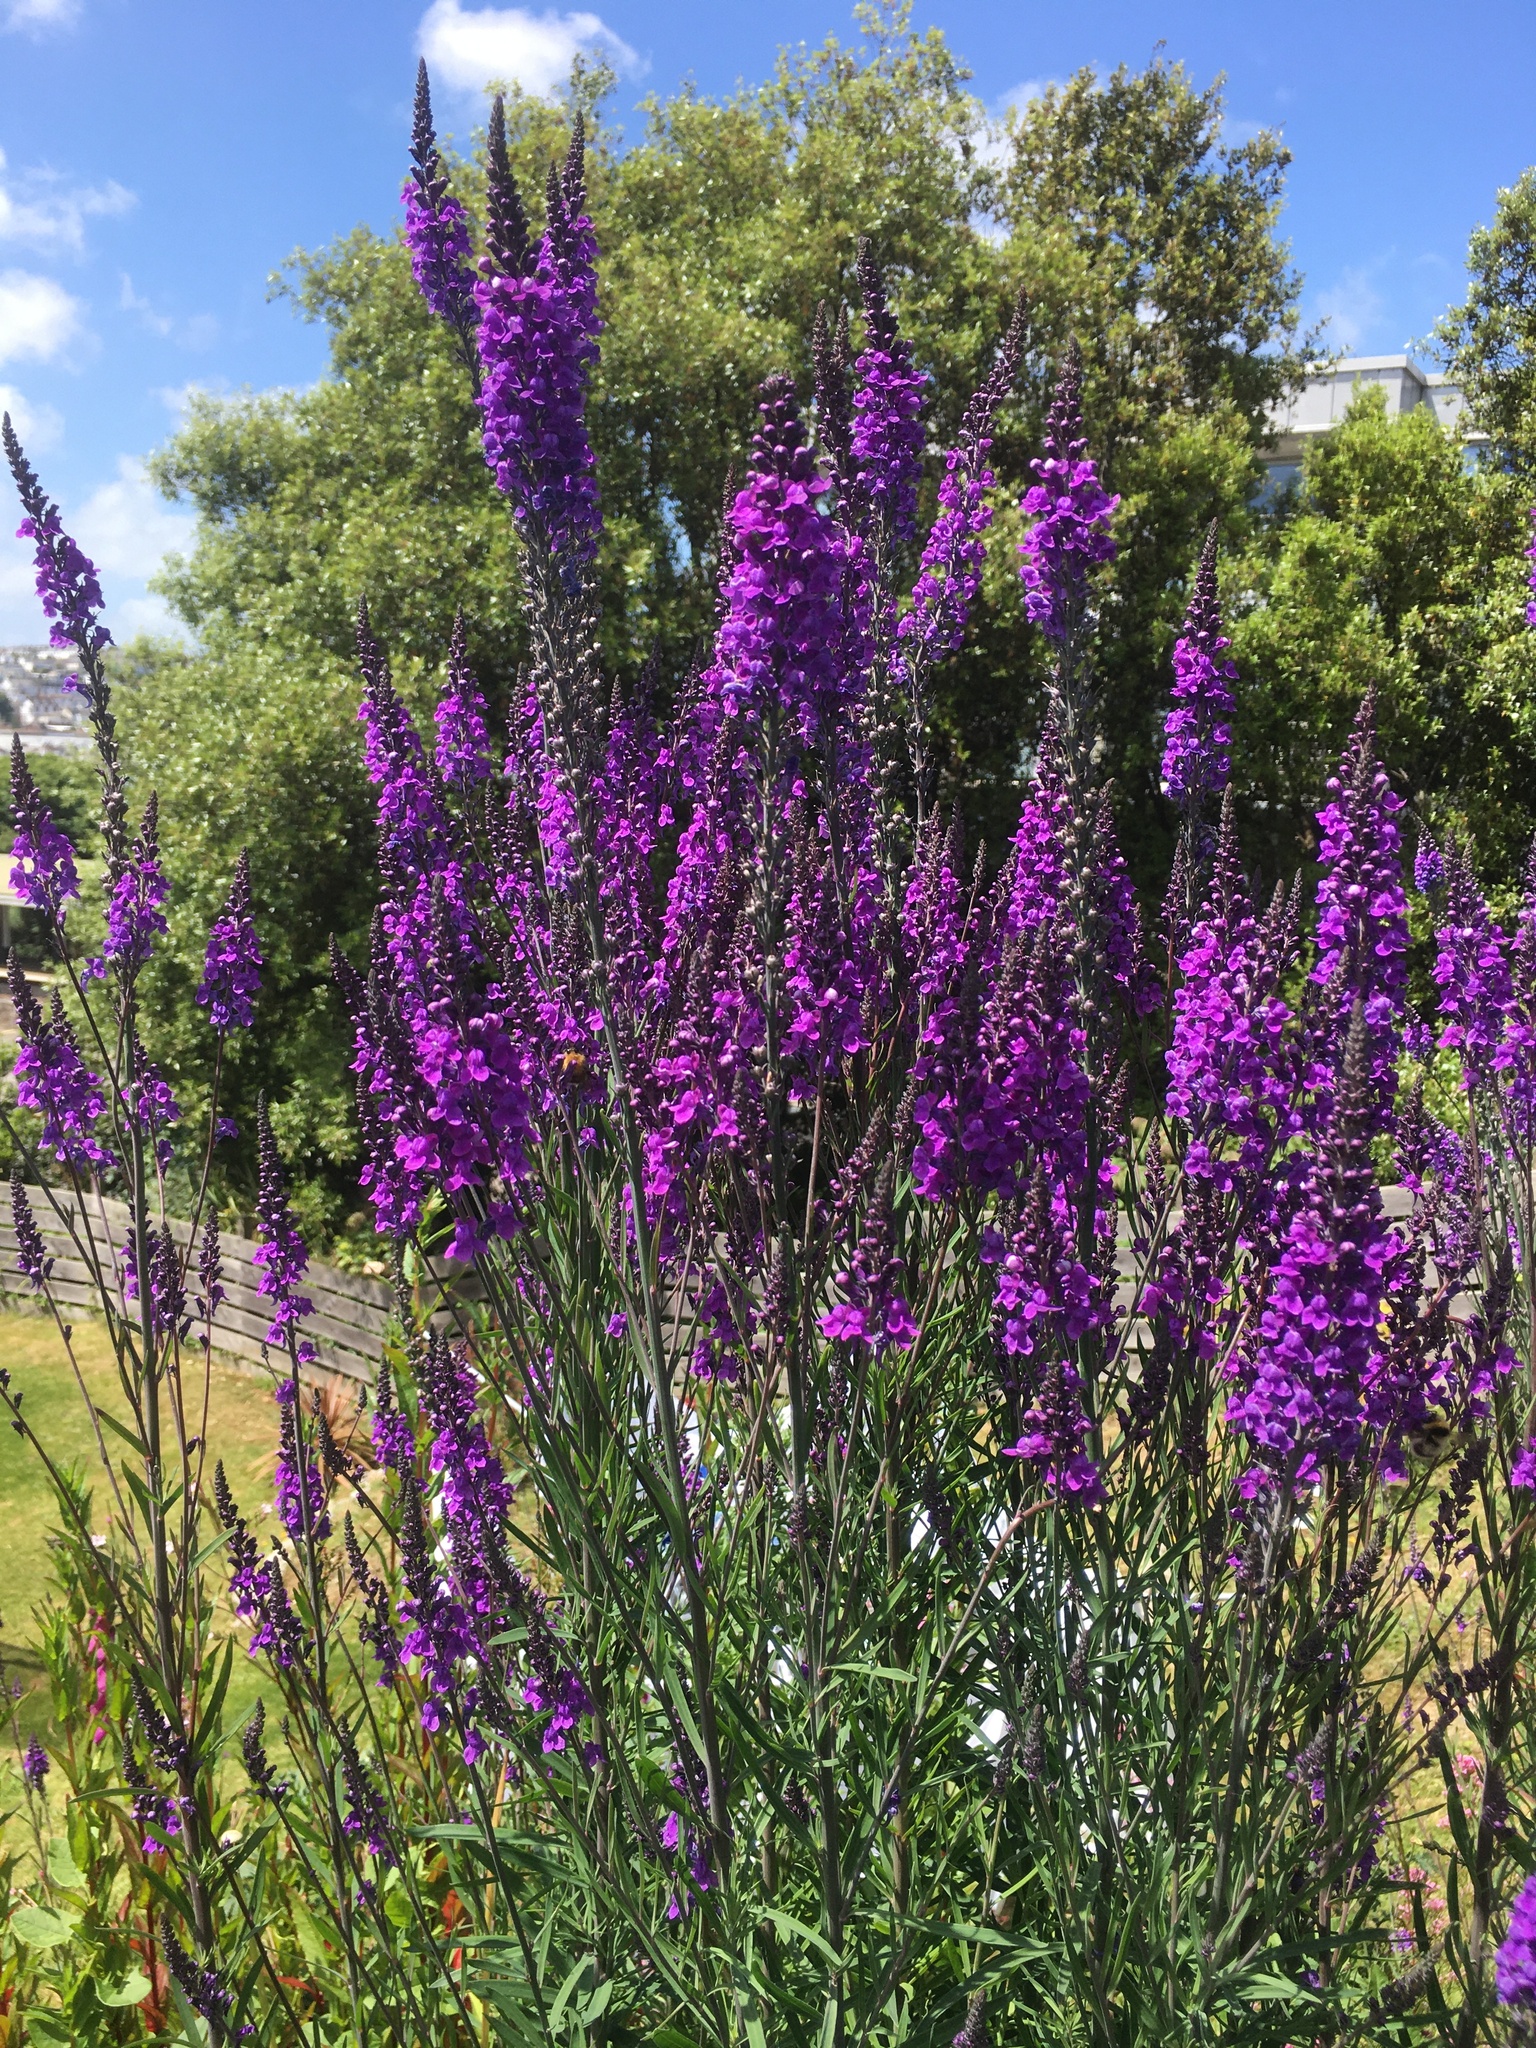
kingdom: Plantae
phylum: Tracheophyta
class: Magnoliopsida
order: Lamiales
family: Plantaginaceae
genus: Linaria
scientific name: Linaria purpurea
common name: Purple toadflax
